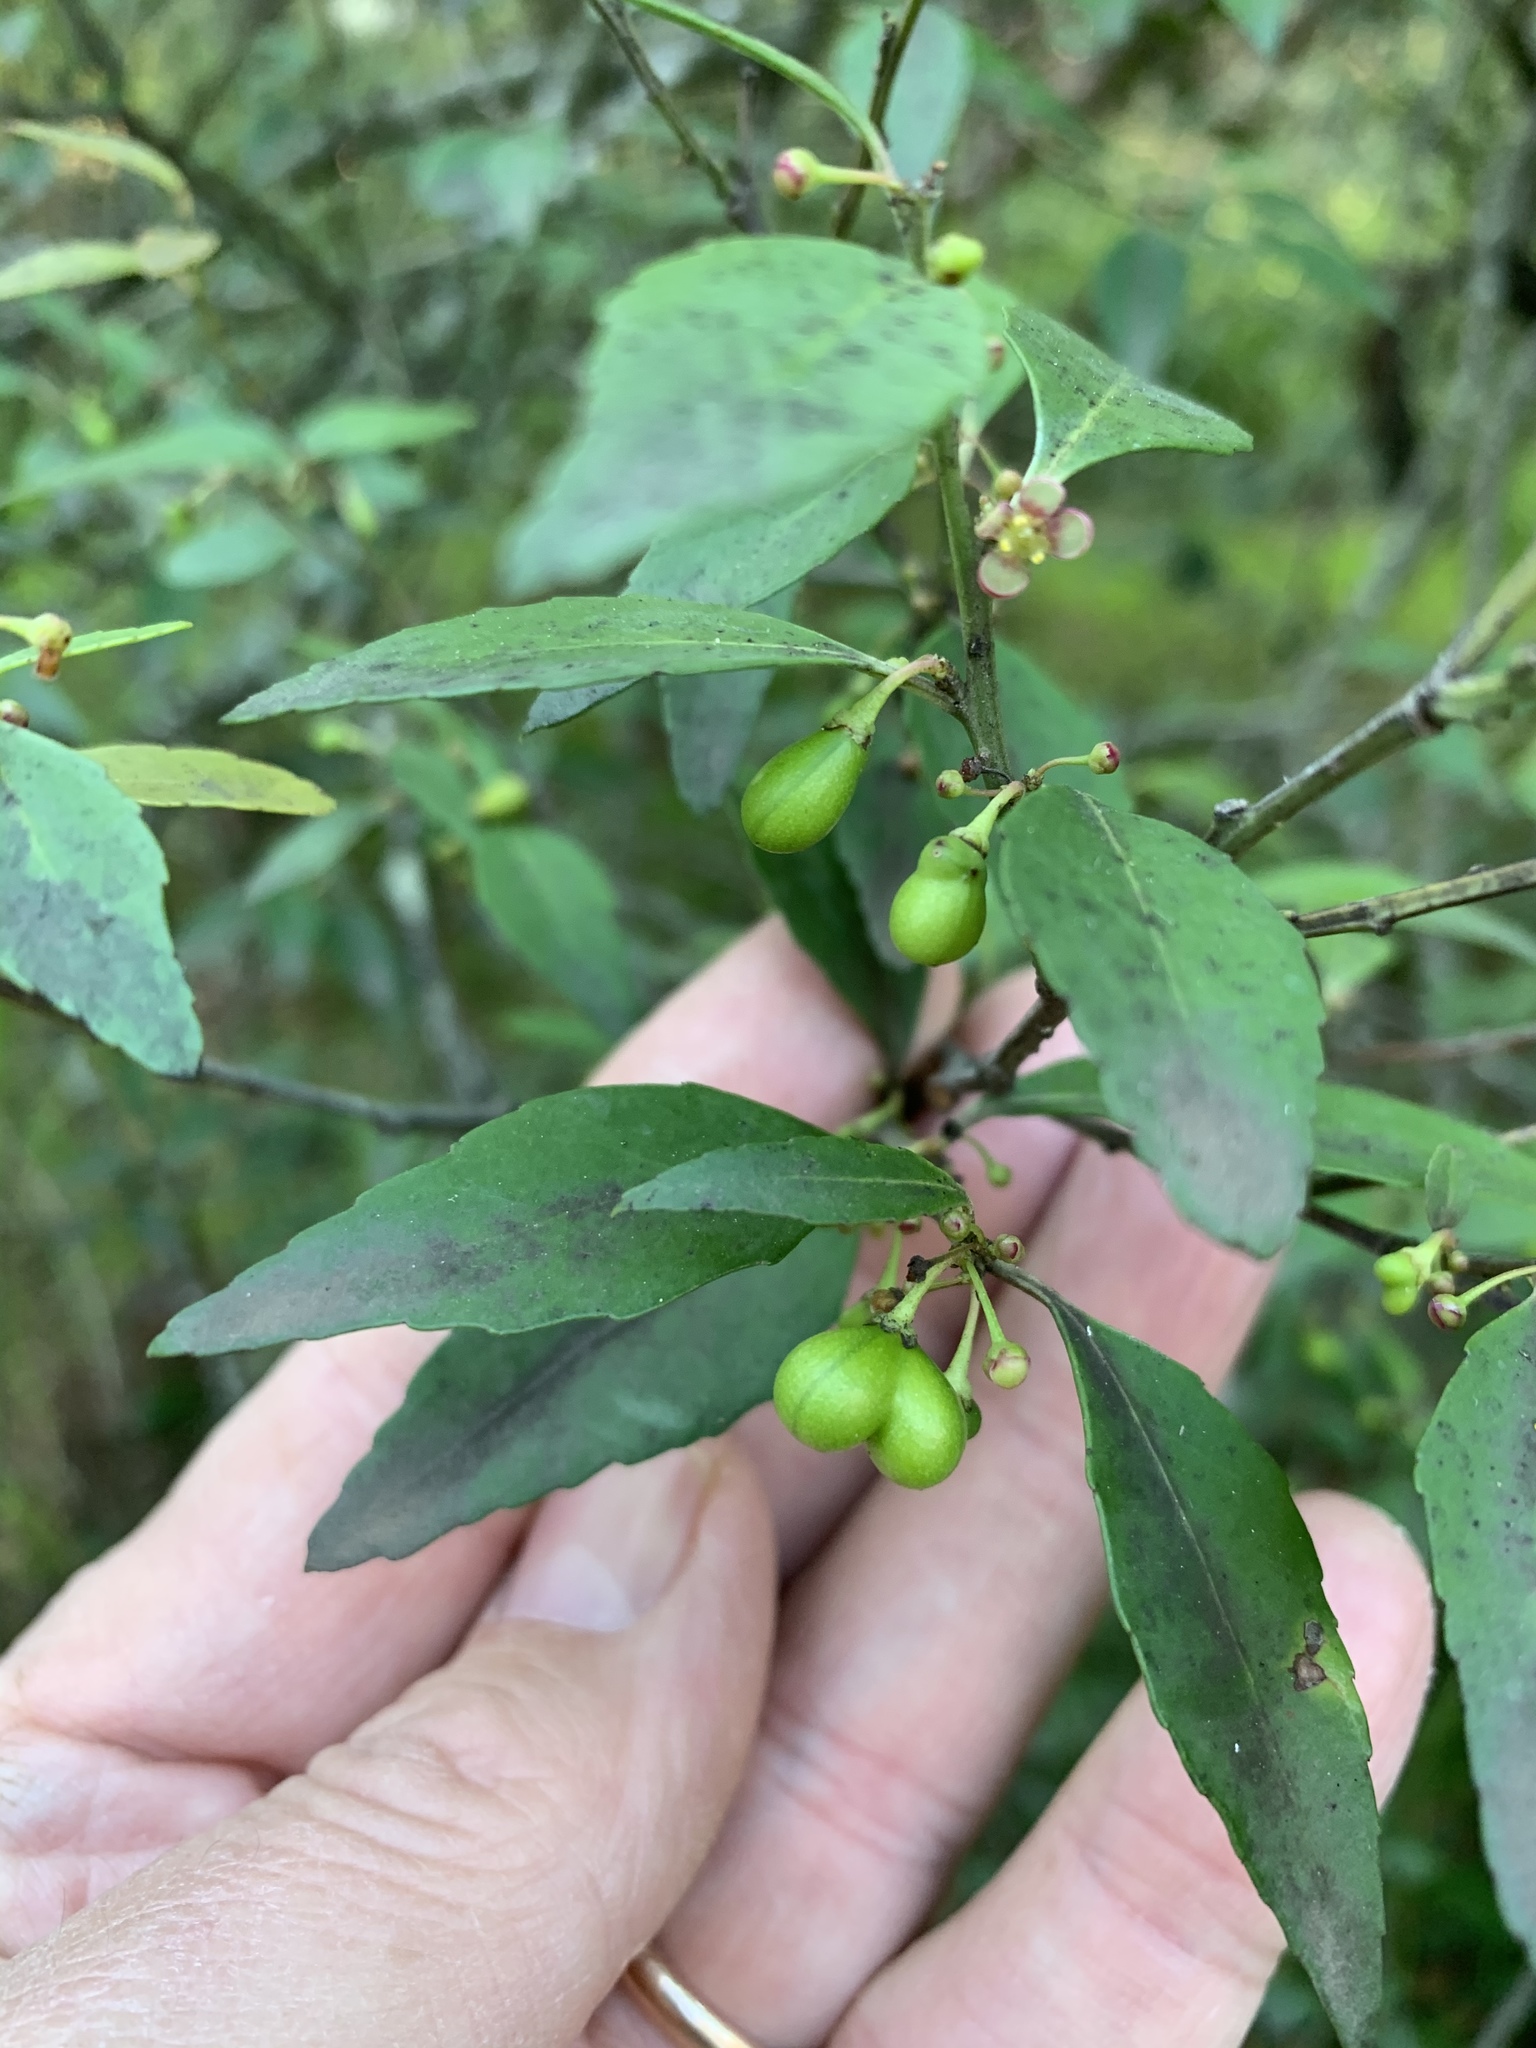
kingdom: Plantae
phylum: Tracheophyta
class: Magnoliopsida
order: Celastrales
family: Celastraceae
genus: Gymnosporia
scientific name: Gymnosporia acuminata
